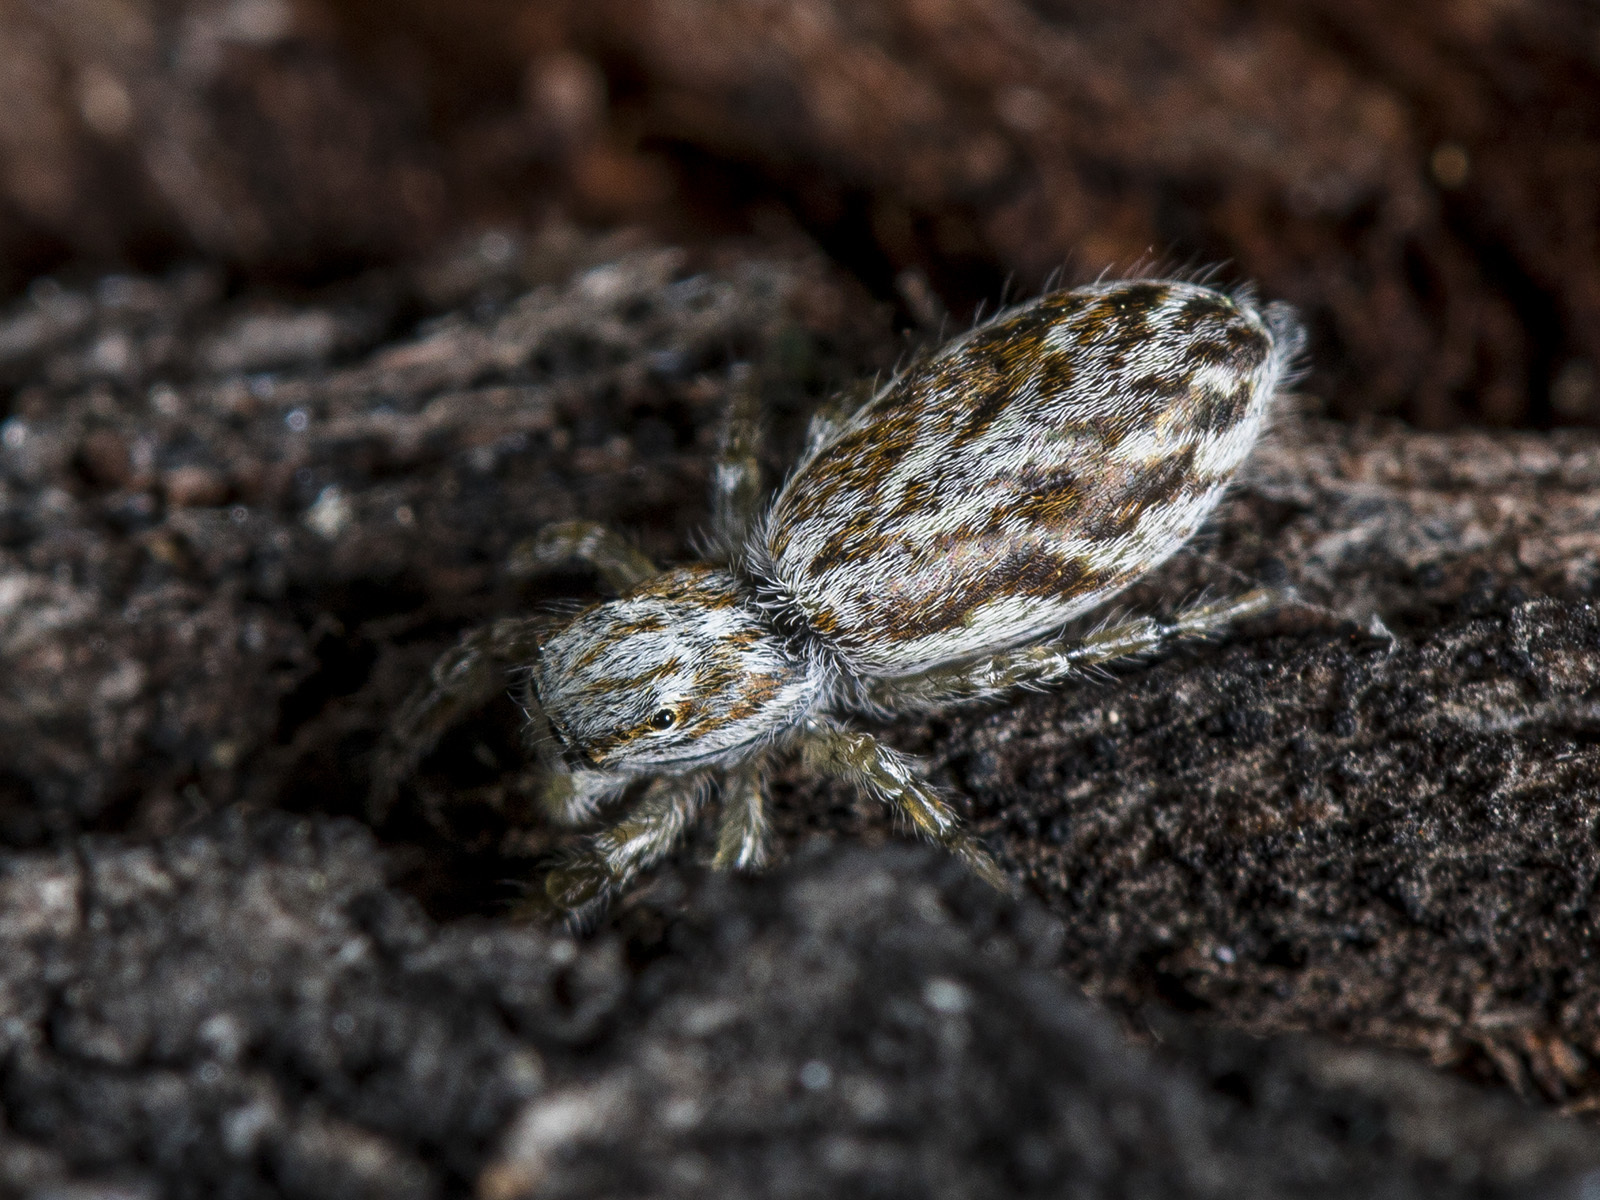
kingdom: Animalia
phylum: Arthropoda
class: Arachnida
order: Araneae
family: Salticidae
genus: Pseudicius
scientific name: Pseudicius encarpatus
